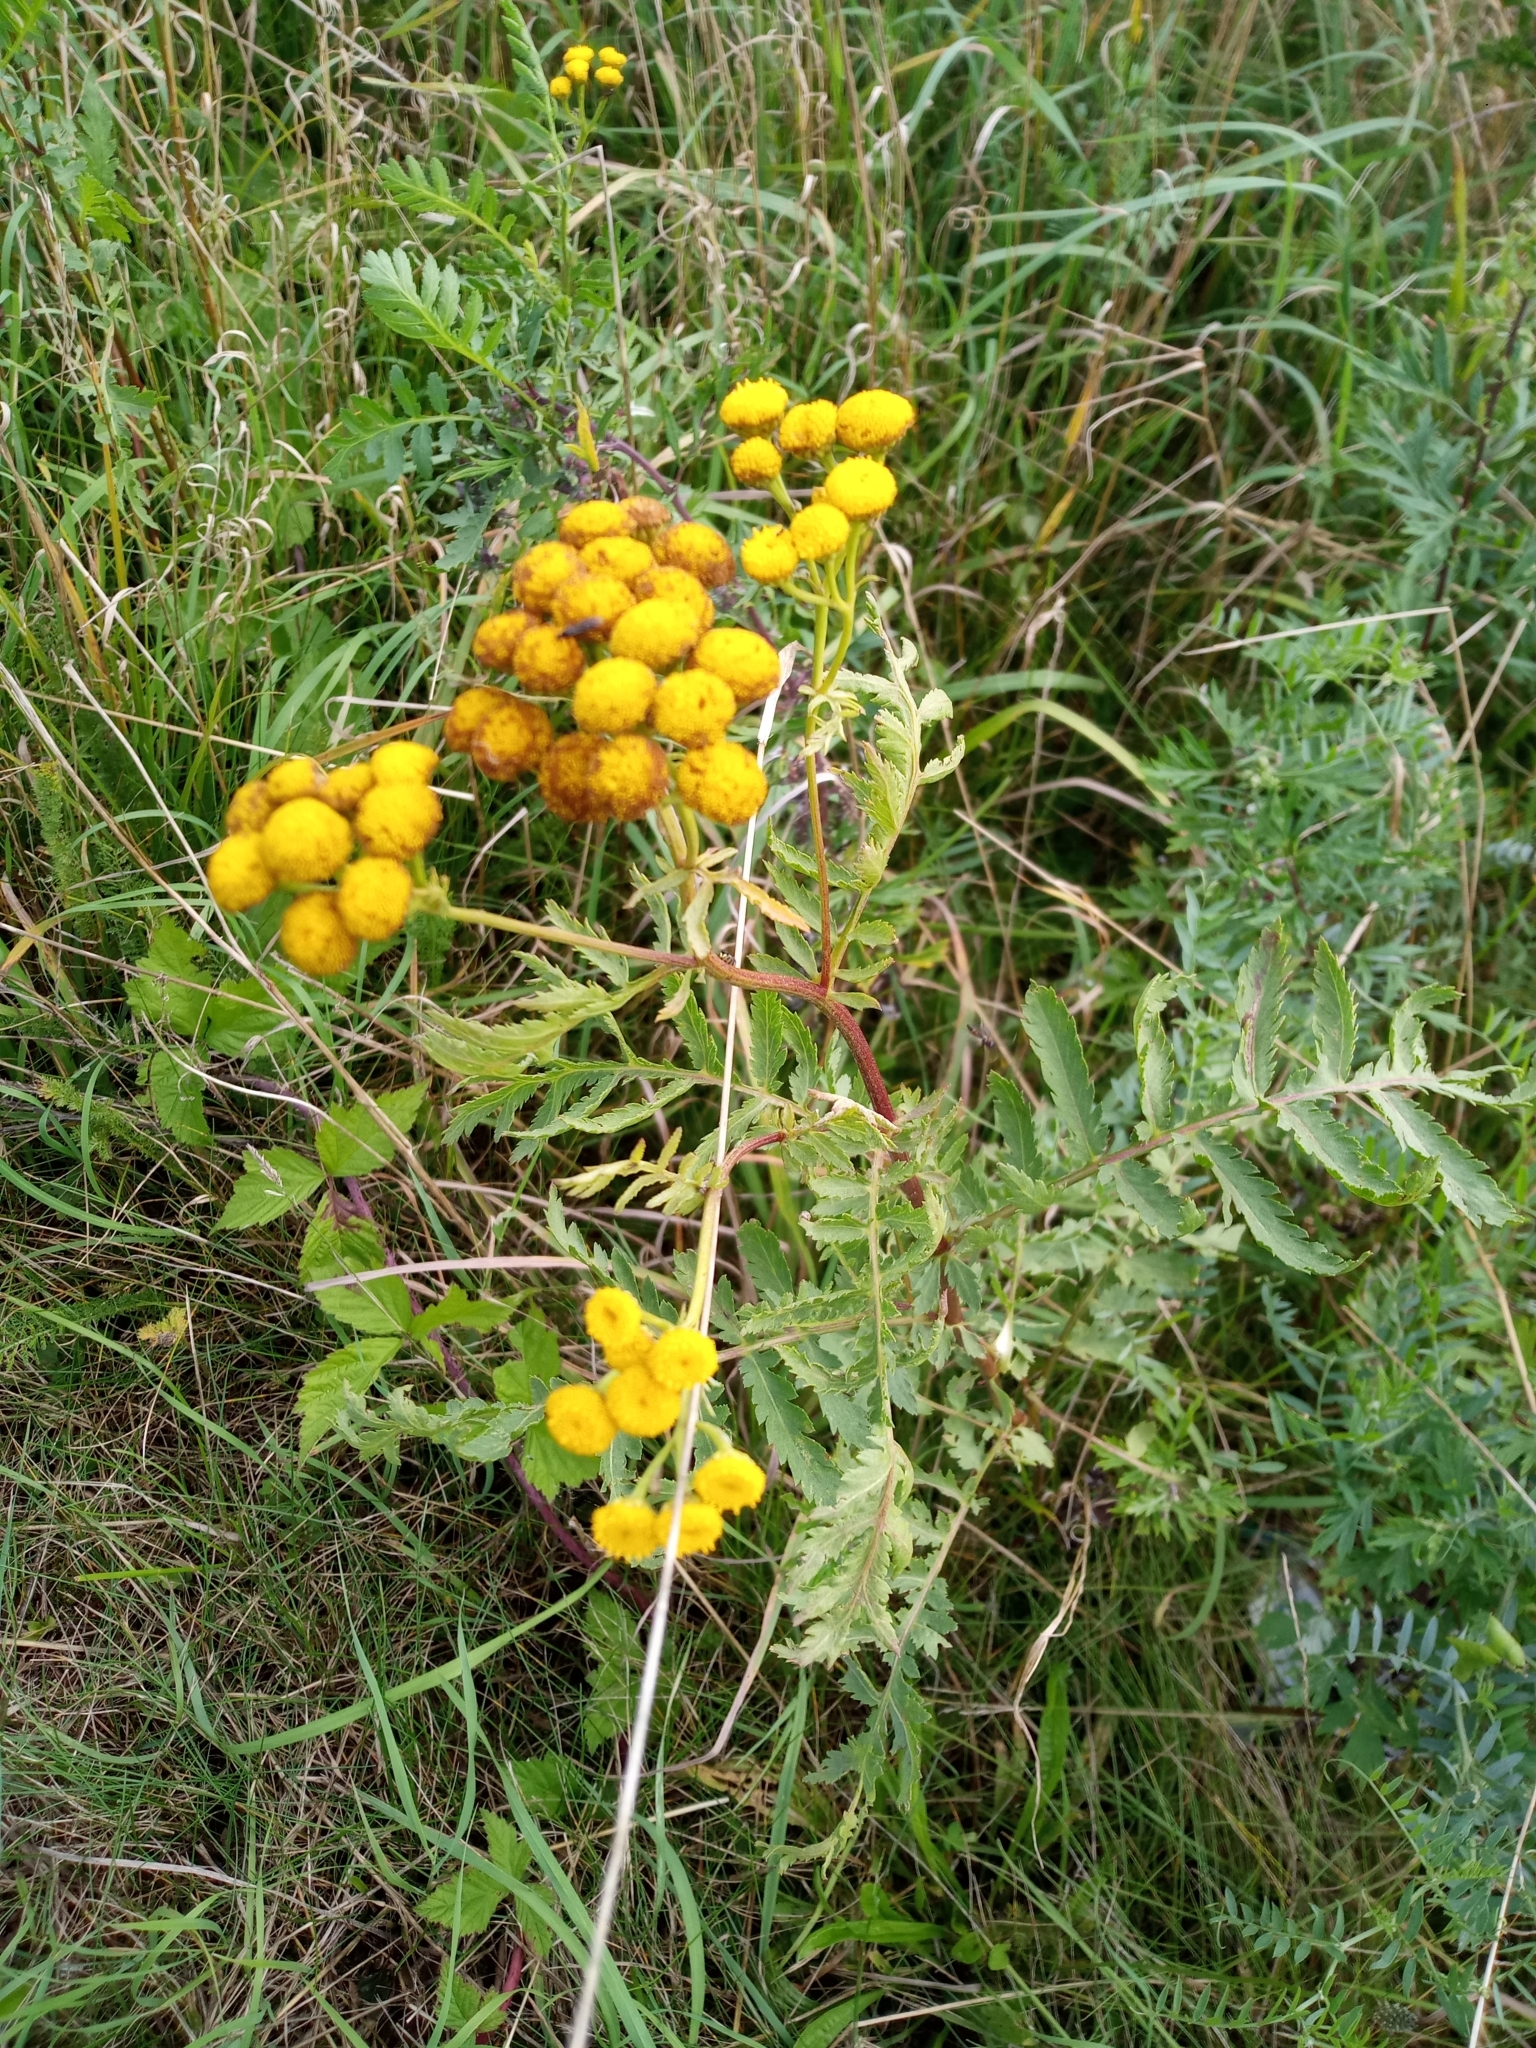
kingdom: Plantae
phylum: Tracheophyta
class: Magnoliopsida
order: Asterales
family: Asteraceae
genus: Tanacetum
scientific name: Tanacetum vulgare
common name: Common tansy
